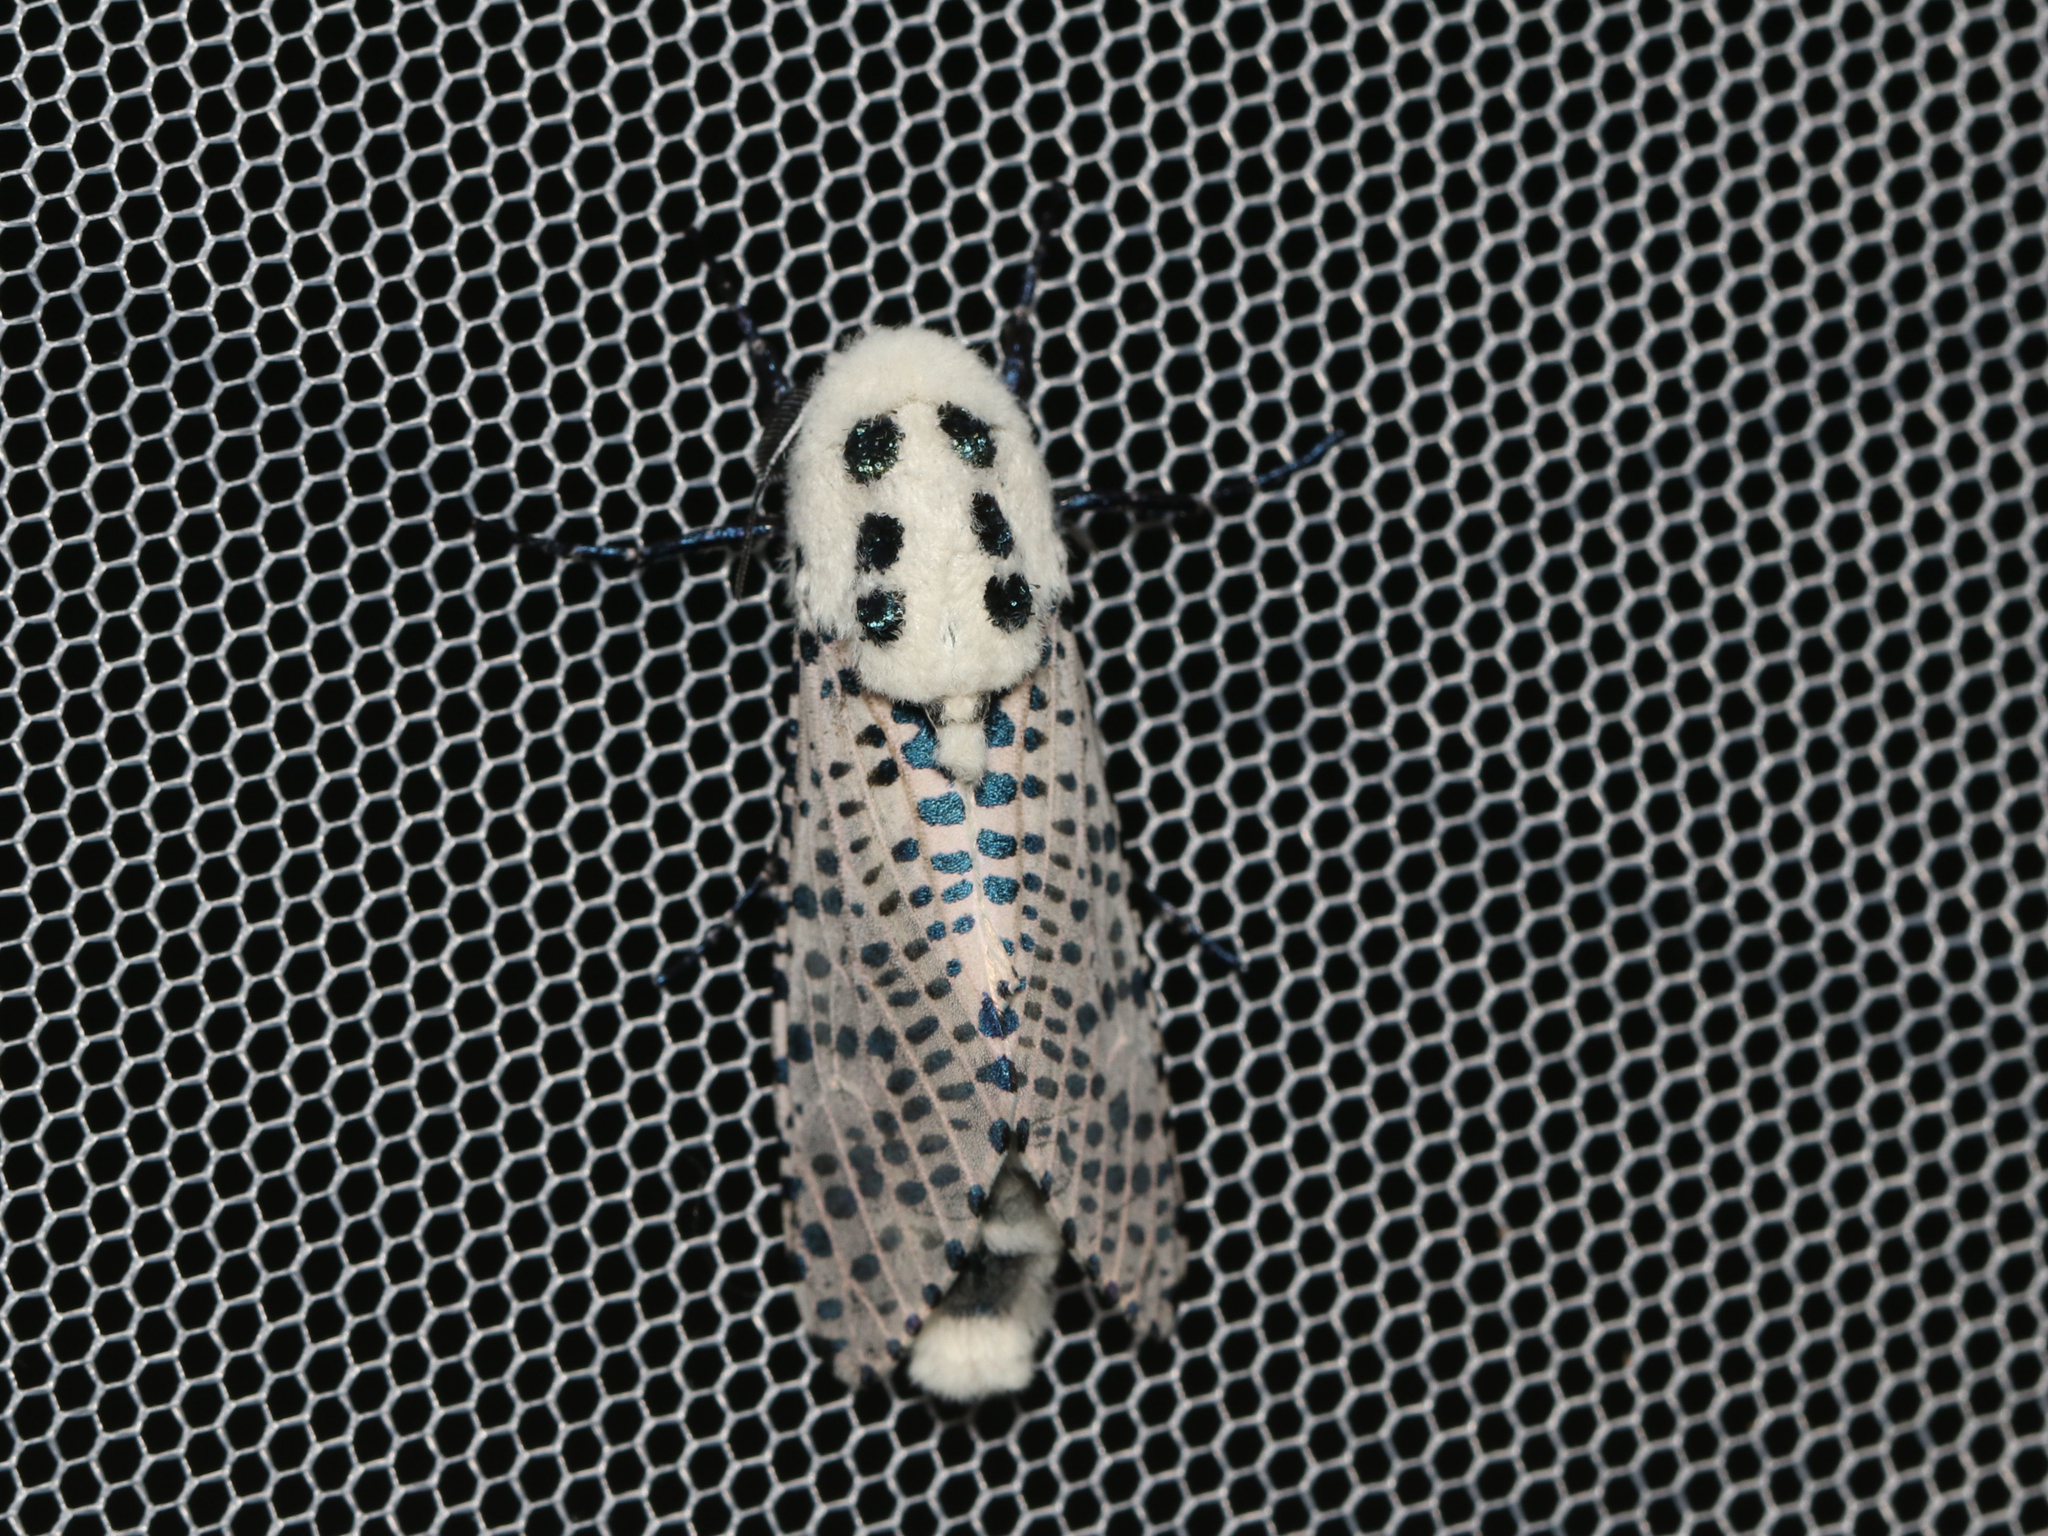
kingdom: Animalia
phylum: Arthropoda
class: Insecta
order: Lepidoptera
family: Cossidae
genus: Zeuzera
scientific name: Zeuzera pyrina
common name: Leopard moth
